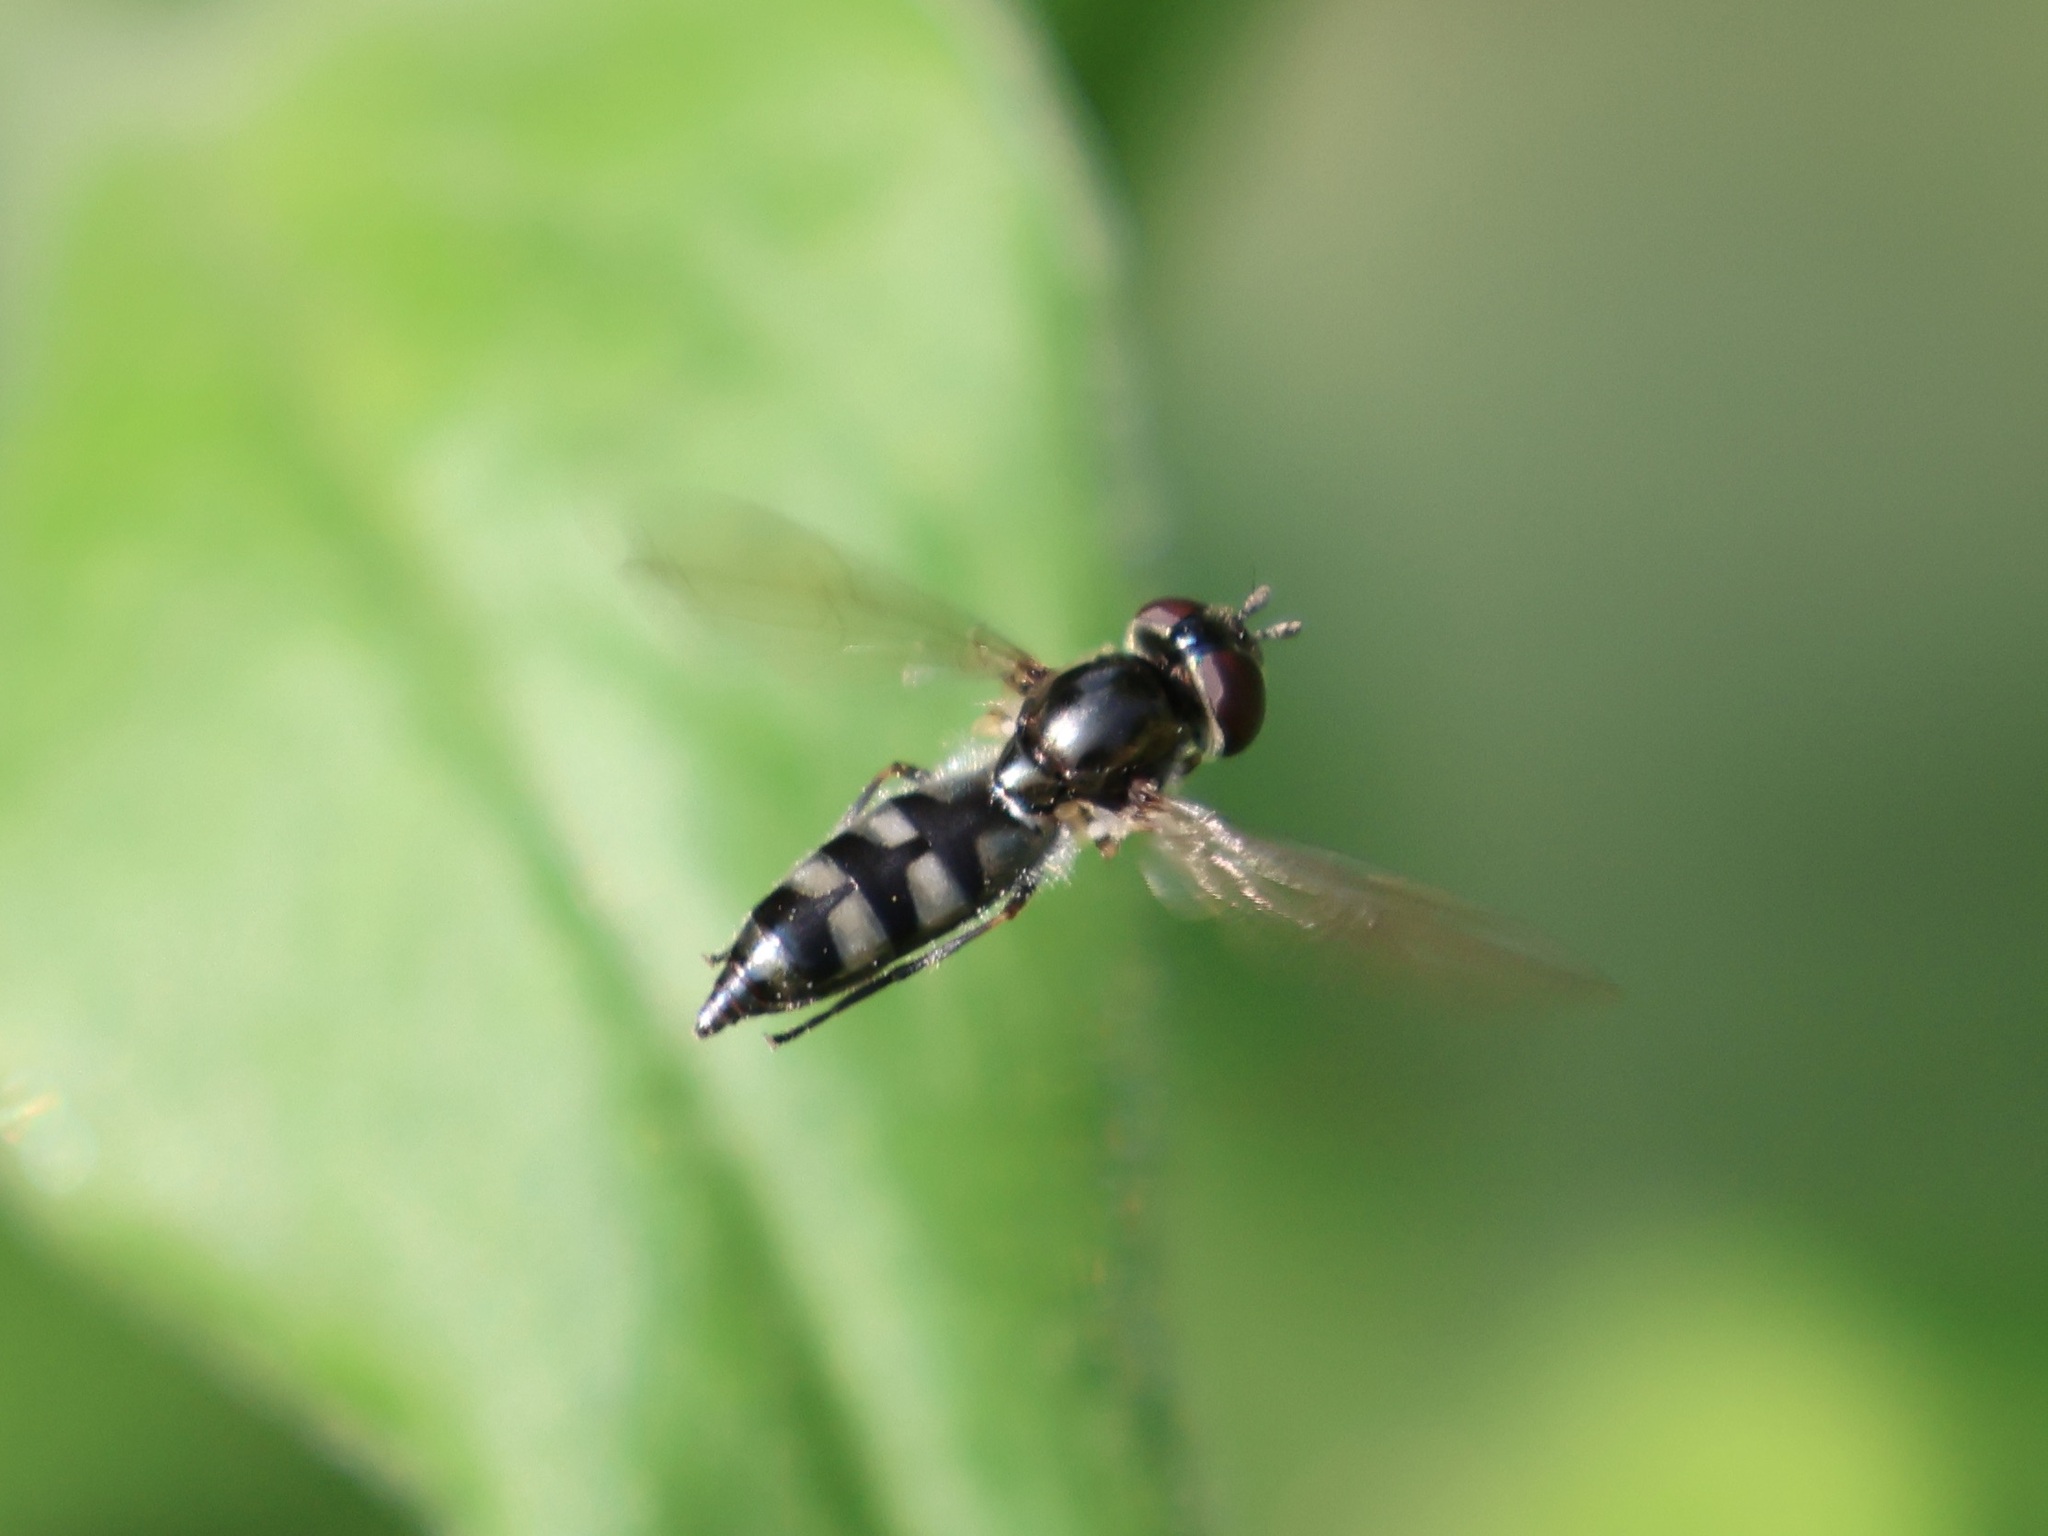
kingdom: Animalia
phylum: Arthropoda
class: Insecta
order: Diptera
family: Syrphidae
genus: Platycheirus
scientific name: Platycheirus albimanus
